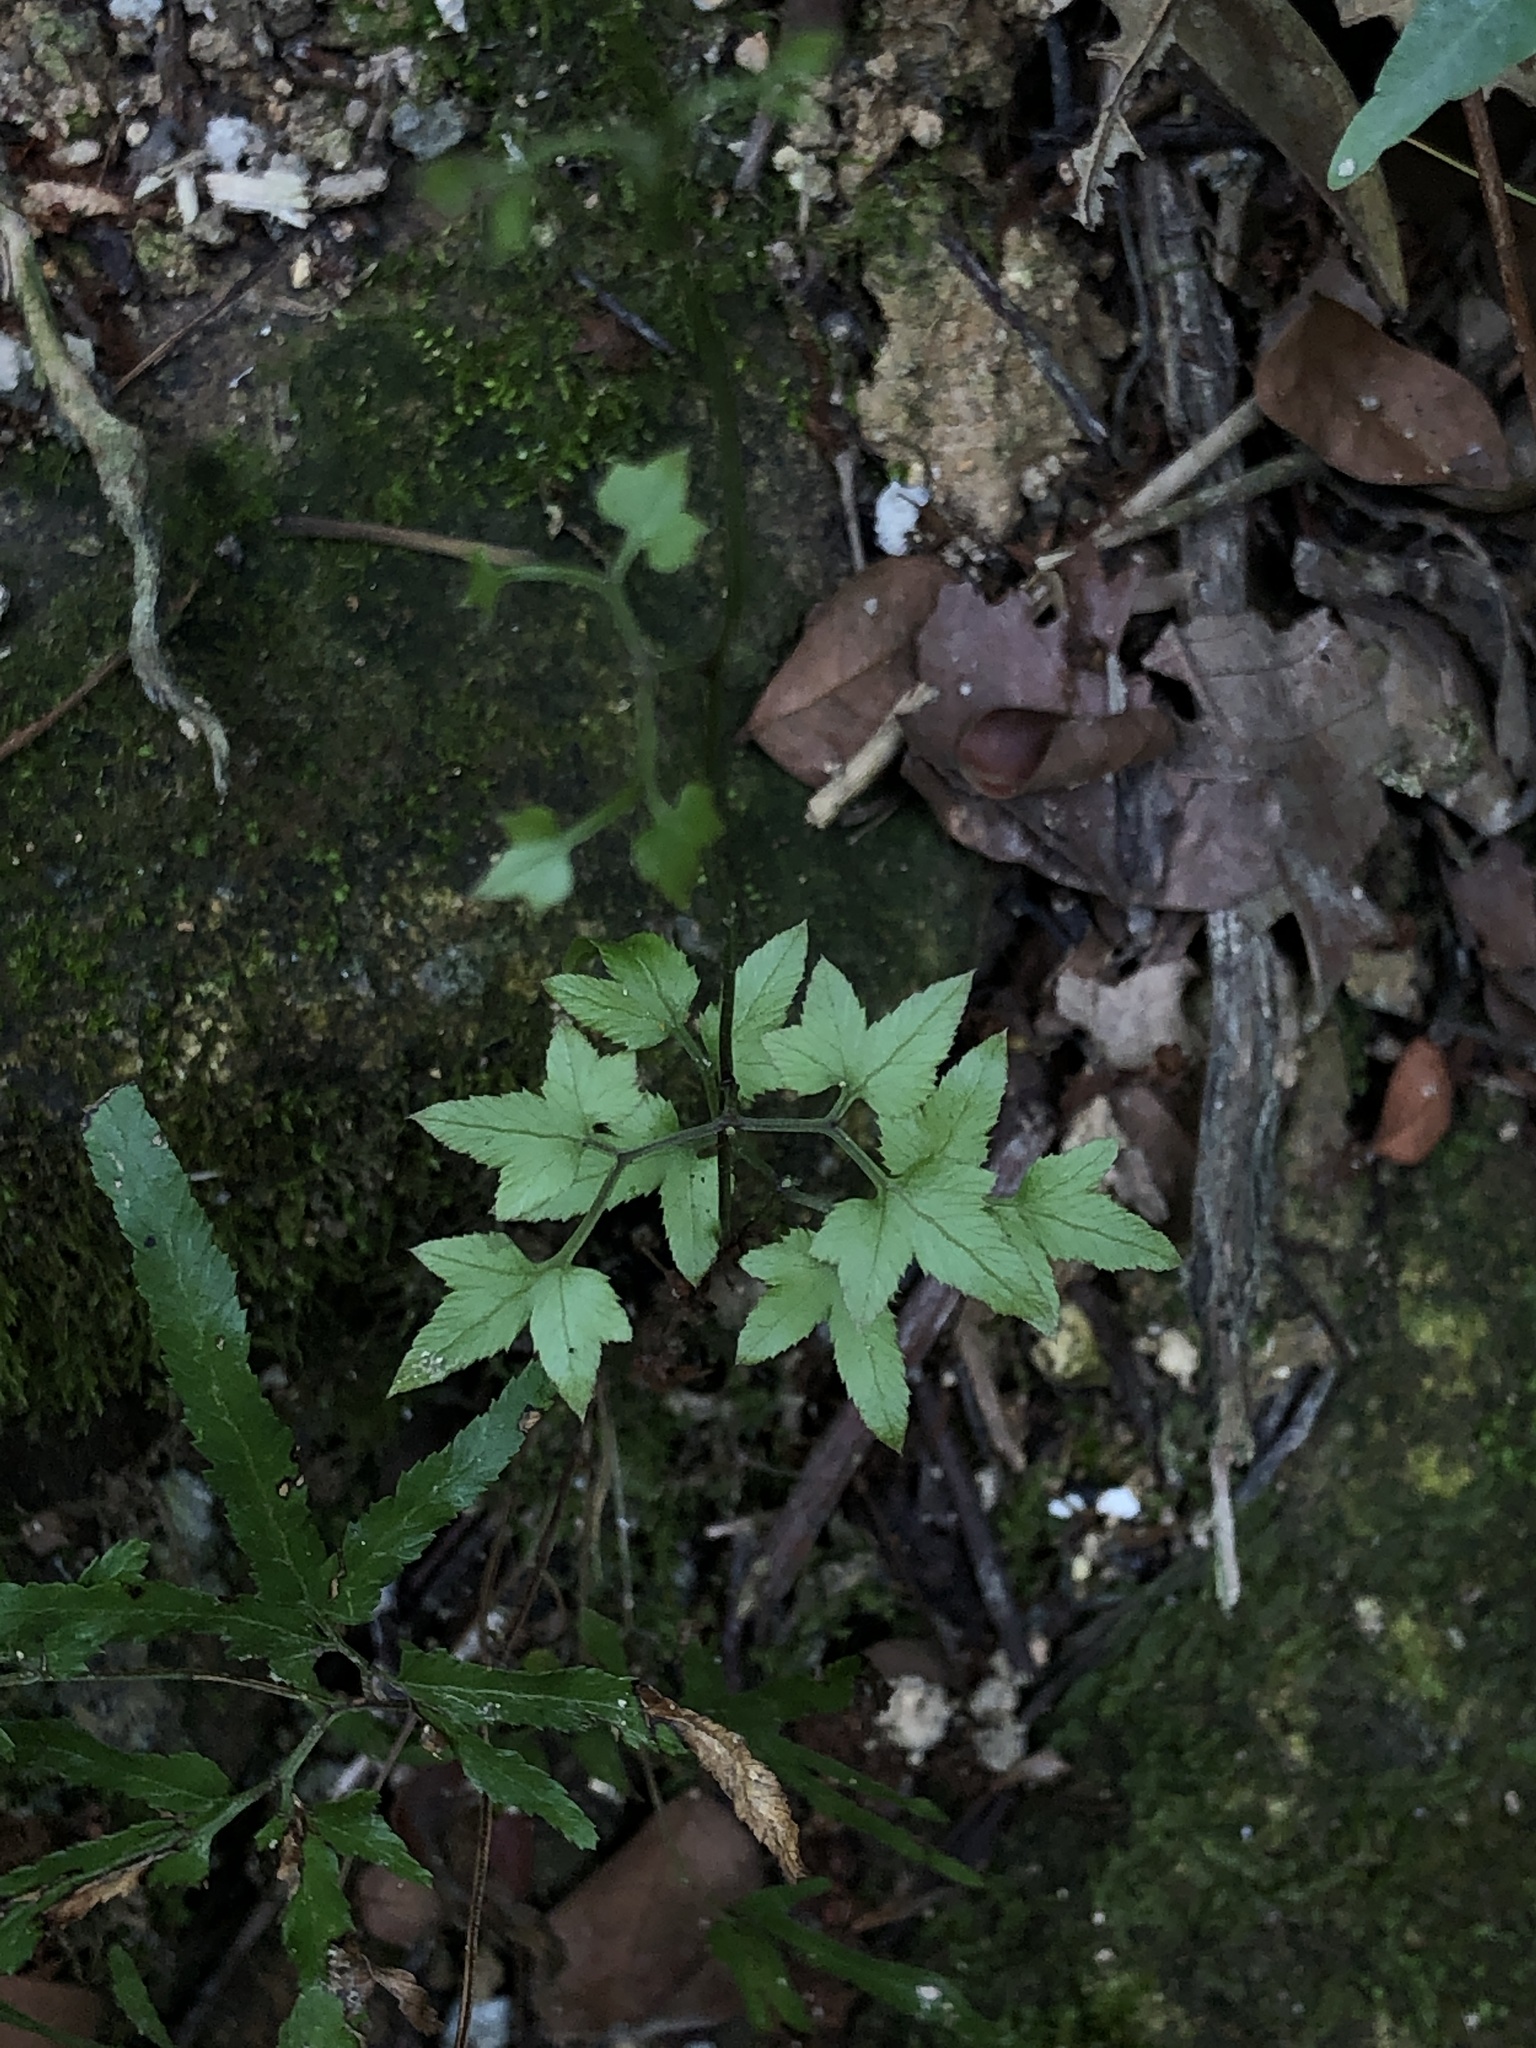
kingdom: Plantae
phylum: Tracheophyta
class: Polypodiopsida
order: Schizaeales
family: Lygodiaceae
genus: Lygodium
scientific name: Lygodium japonicum
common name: Japanese climbing fern
